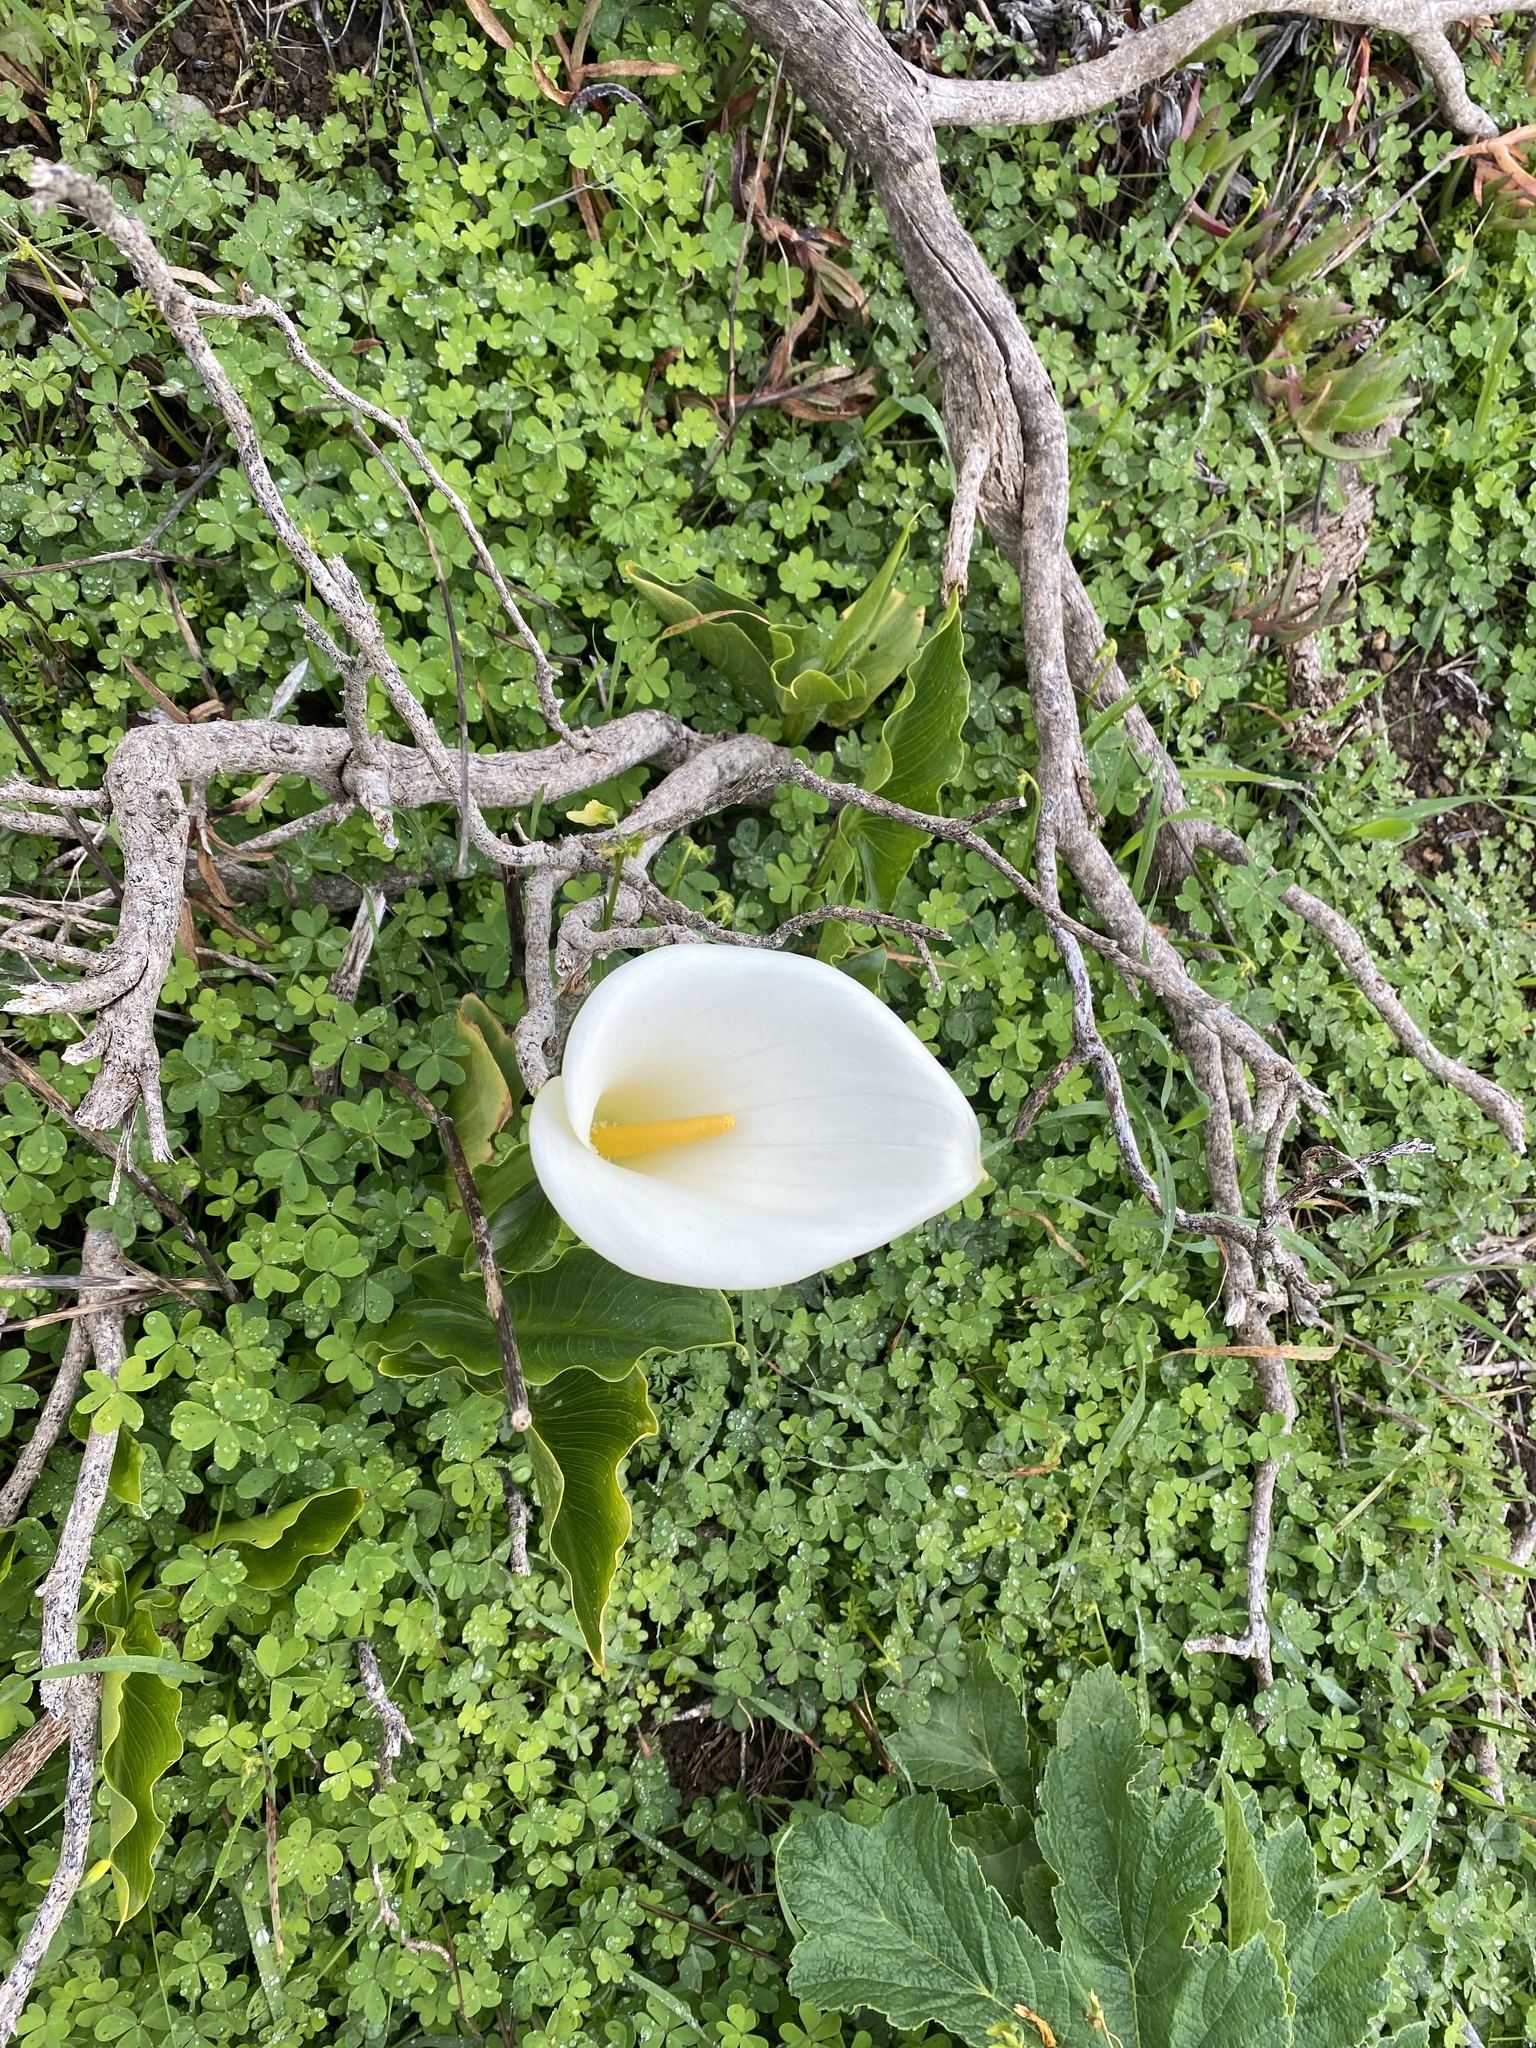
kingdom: Plantae
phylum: Tracheophyta
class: Liliopsida
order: Alismatales
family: Araceae
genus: Zantedeschia
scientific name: Zantedeschia aethiopica
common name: Altar-lily
